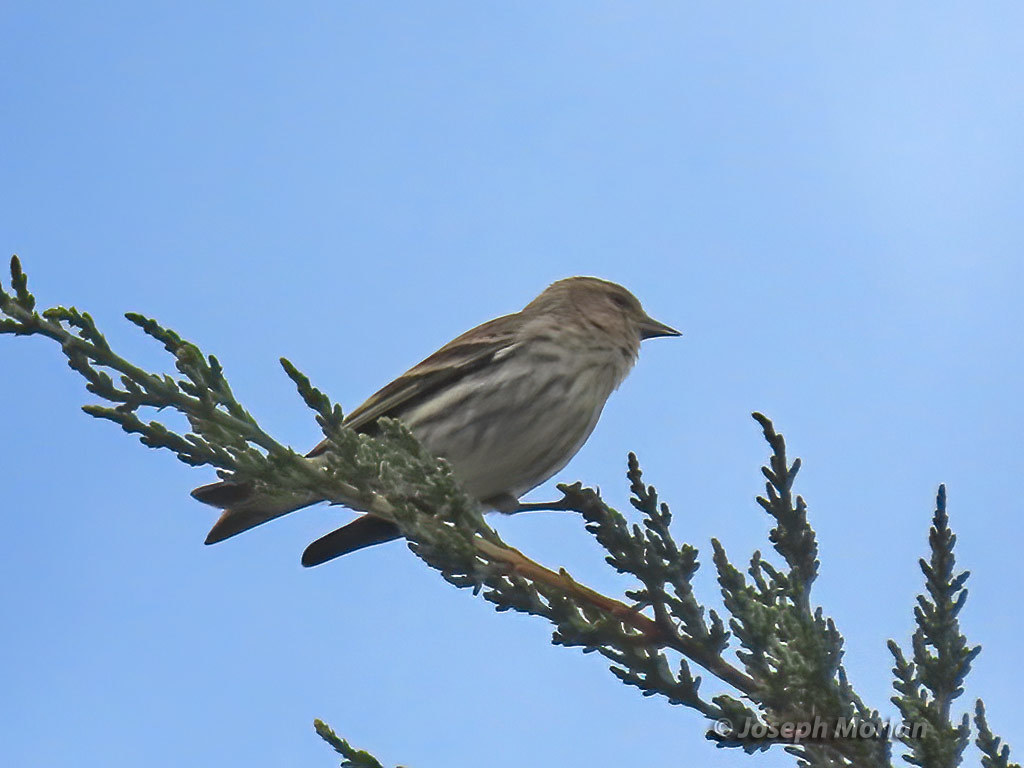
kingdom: Animalia
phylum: Chordata
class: Aves
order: Passeriformes
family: Fringillidae
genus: Spinus
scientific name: Spinus pinus
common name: Pine siskin
